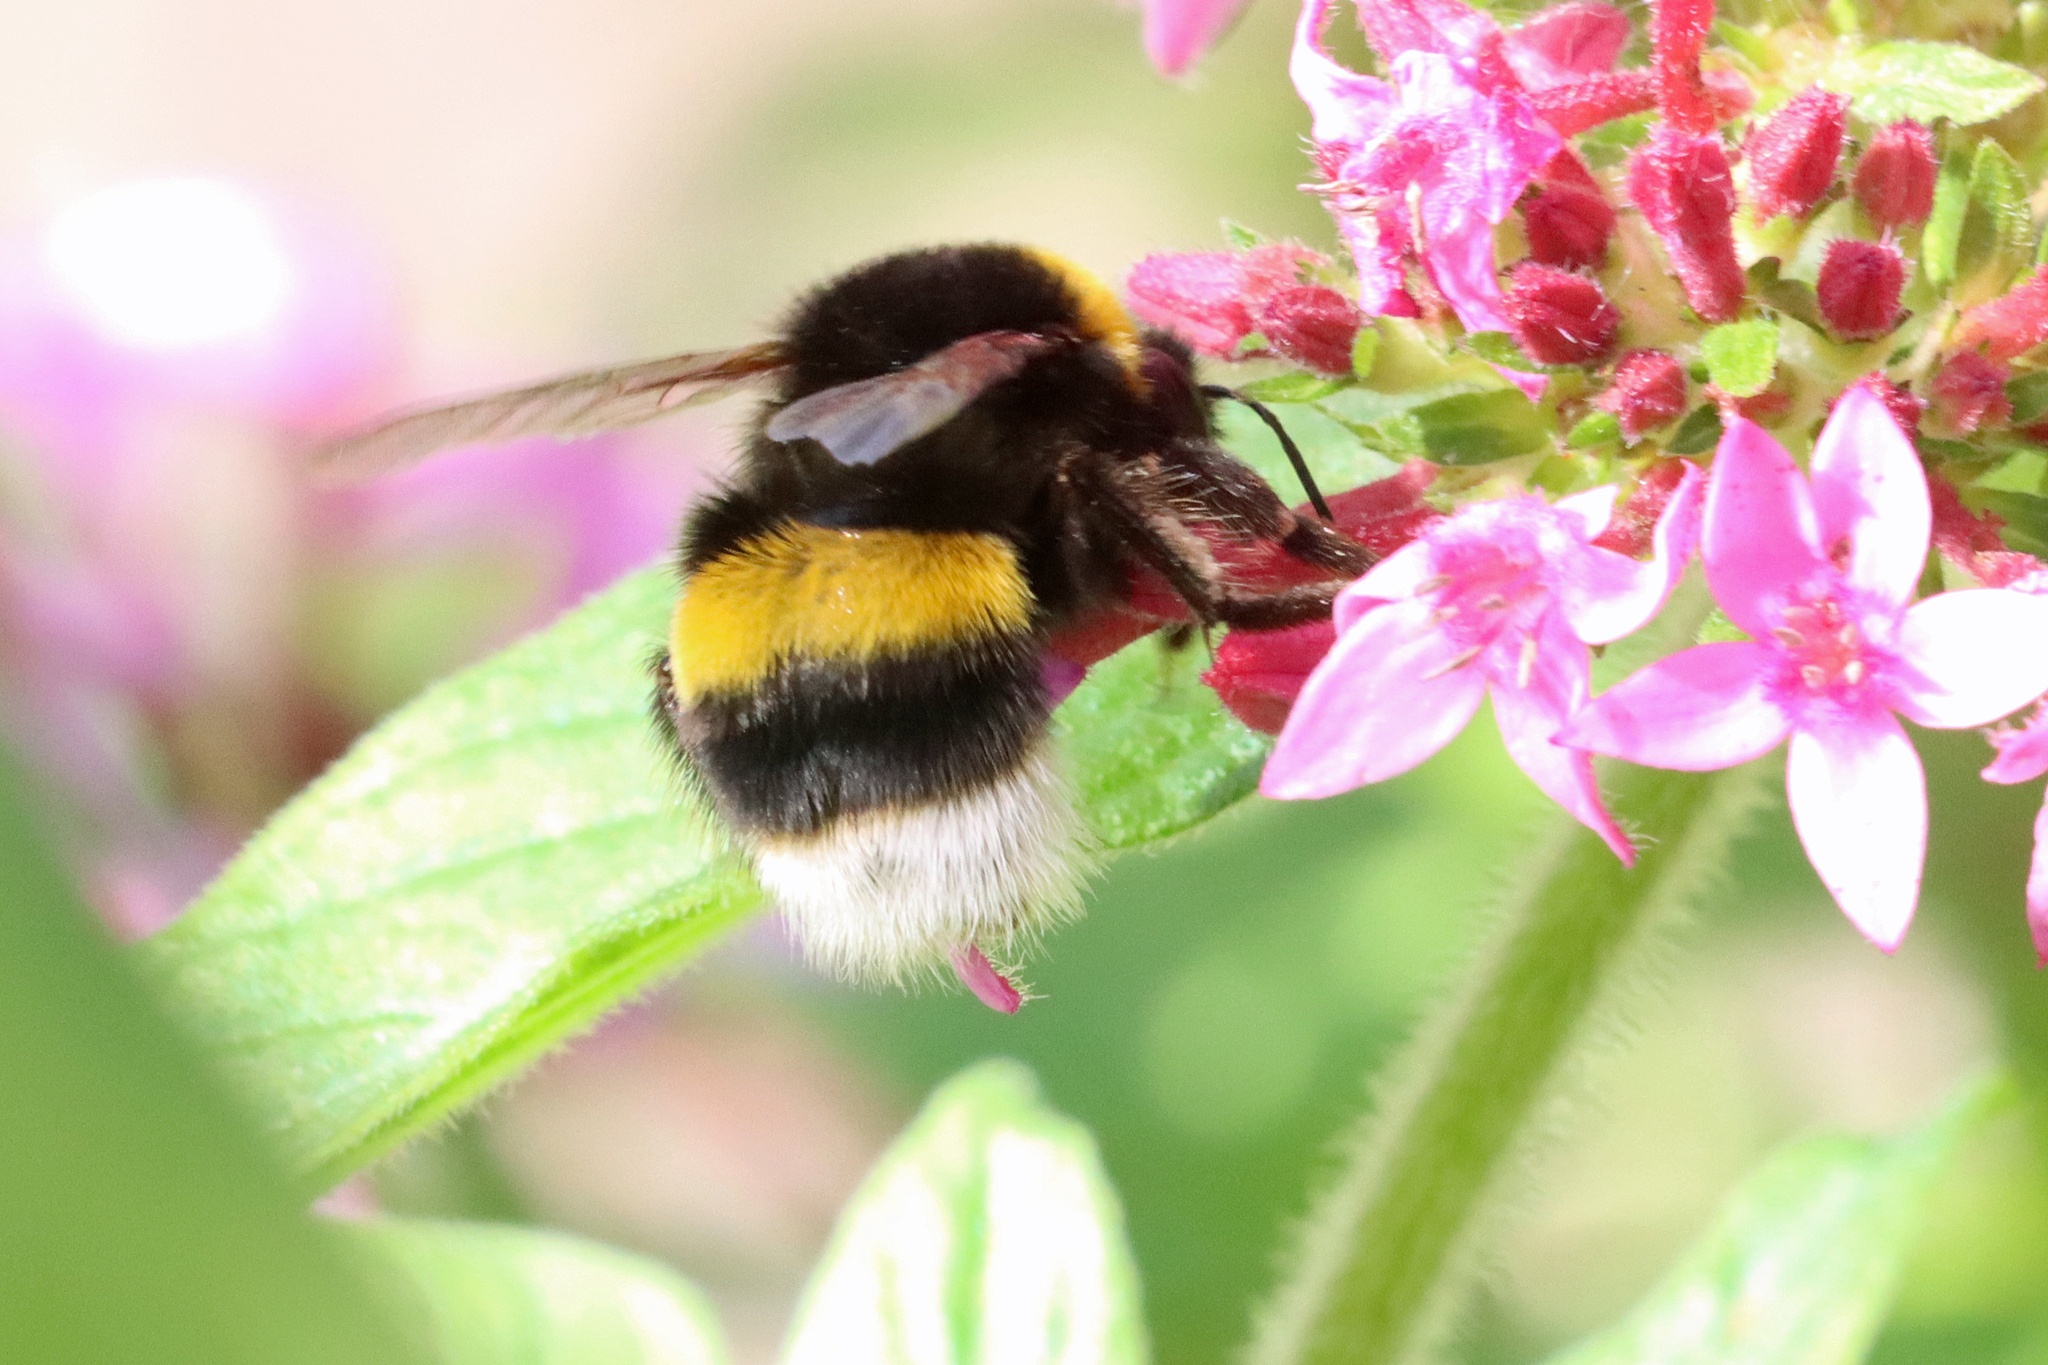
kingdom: Animalia
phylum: Arthropoda
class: Insecta
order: Hymenoptera
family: Apidae
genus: Bombus
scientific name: Bombus terrestris
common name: Buff-tailed bumblebee
